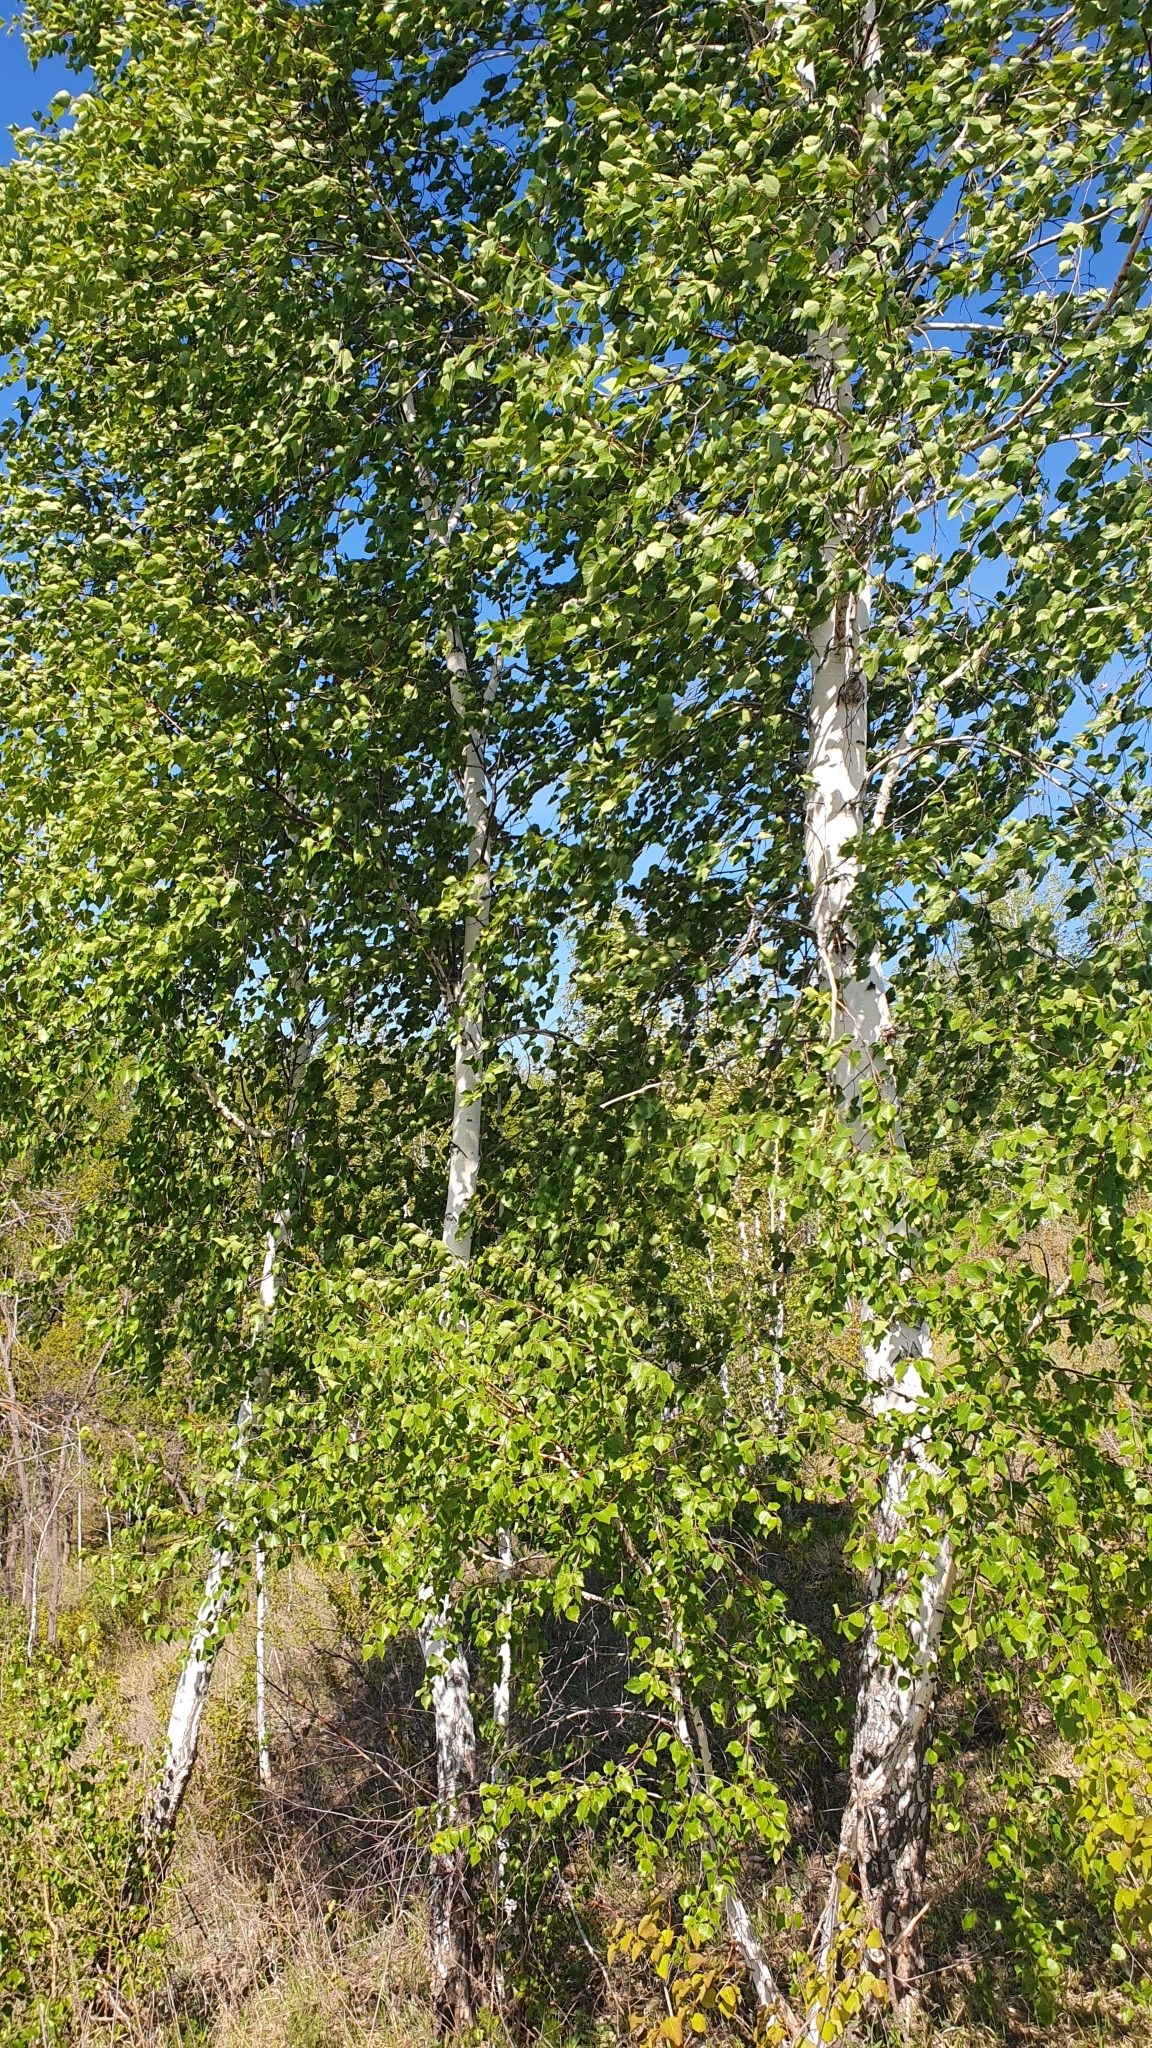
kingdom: Plantae
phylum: Tracheophyta
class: Magnoliopsida
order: Fagales
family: Betulaceae
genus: Betula
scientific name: Betula pendula
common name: Silver birch
